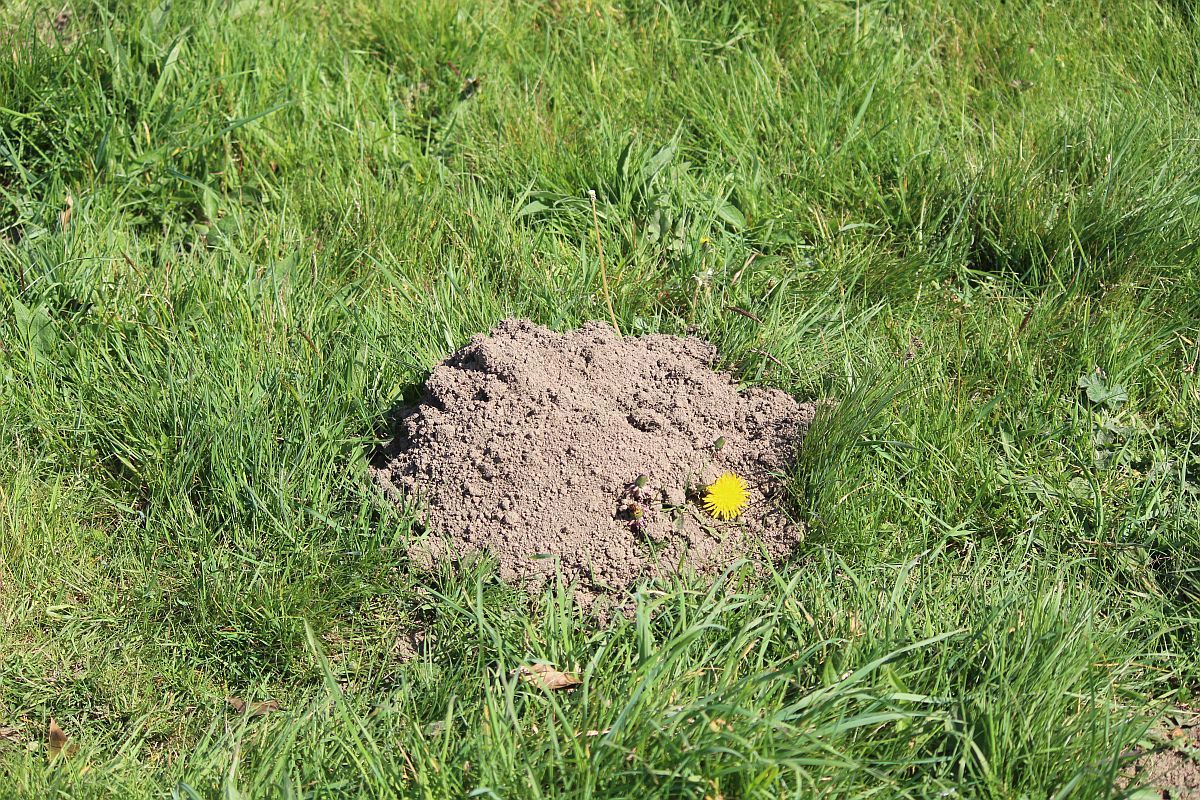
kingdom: Animalia
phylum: Chordata
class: Mammalia
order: Soricomorpha
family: Talpidae
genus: Talpa
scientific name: Talpa europaea
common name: European mole
